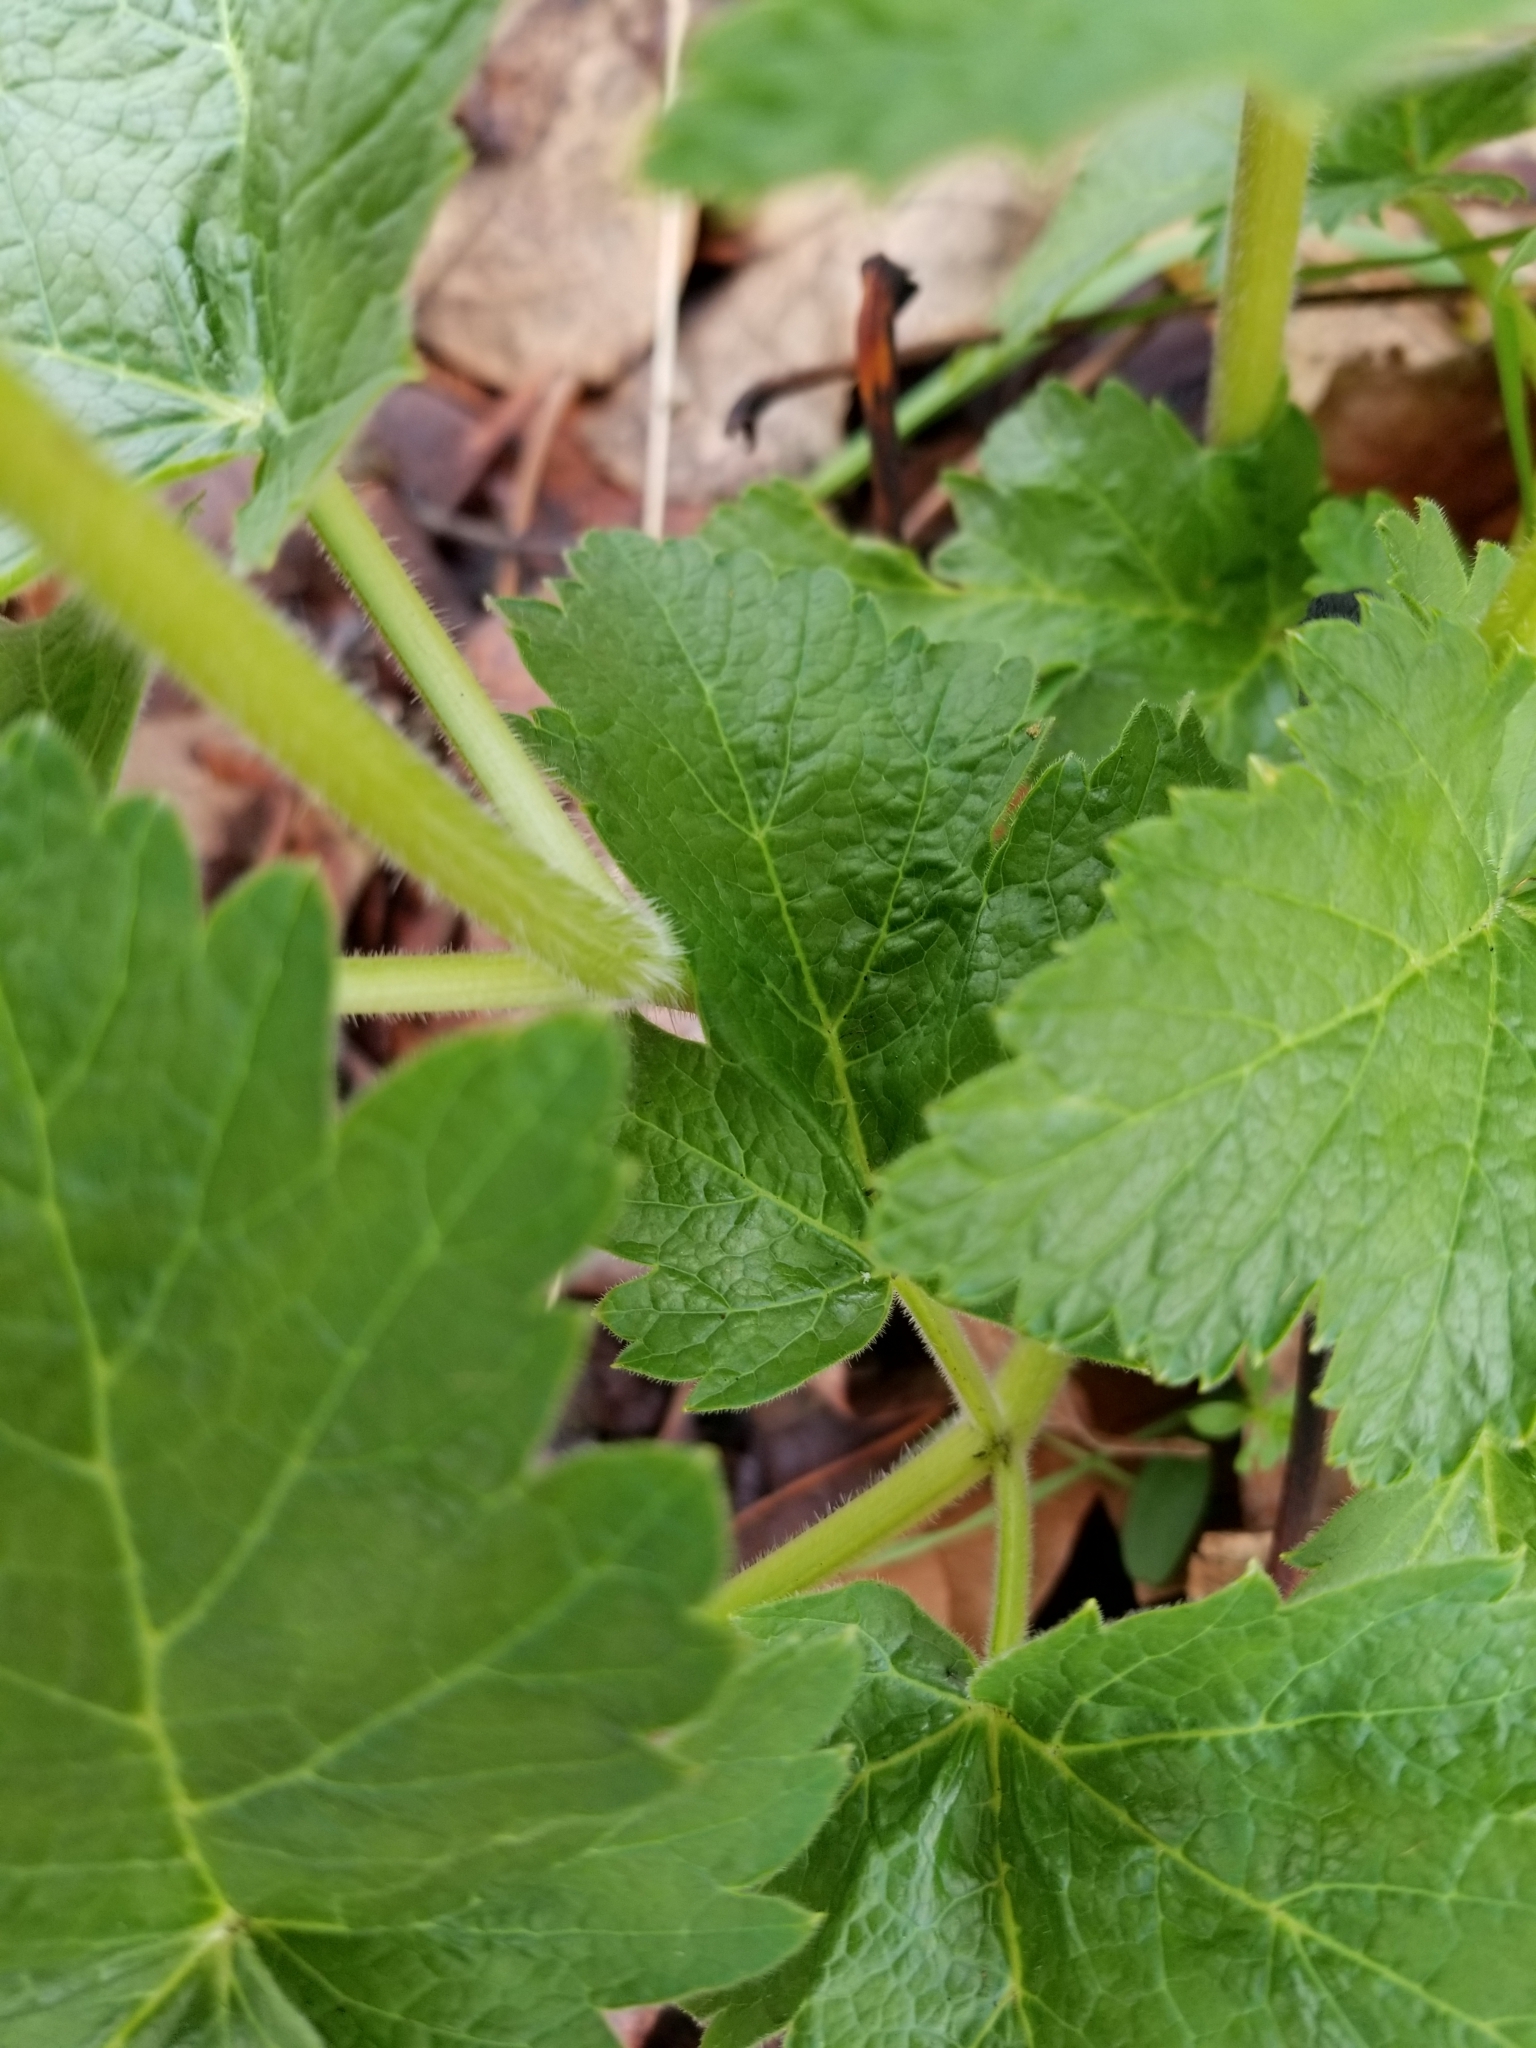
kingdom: Plantae
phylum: Tracheophyta
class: Magnoliopsida
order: Apiales
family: Apiaceae
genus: Heracleum
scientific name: Heracleum maximum
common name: American cow parsnip
